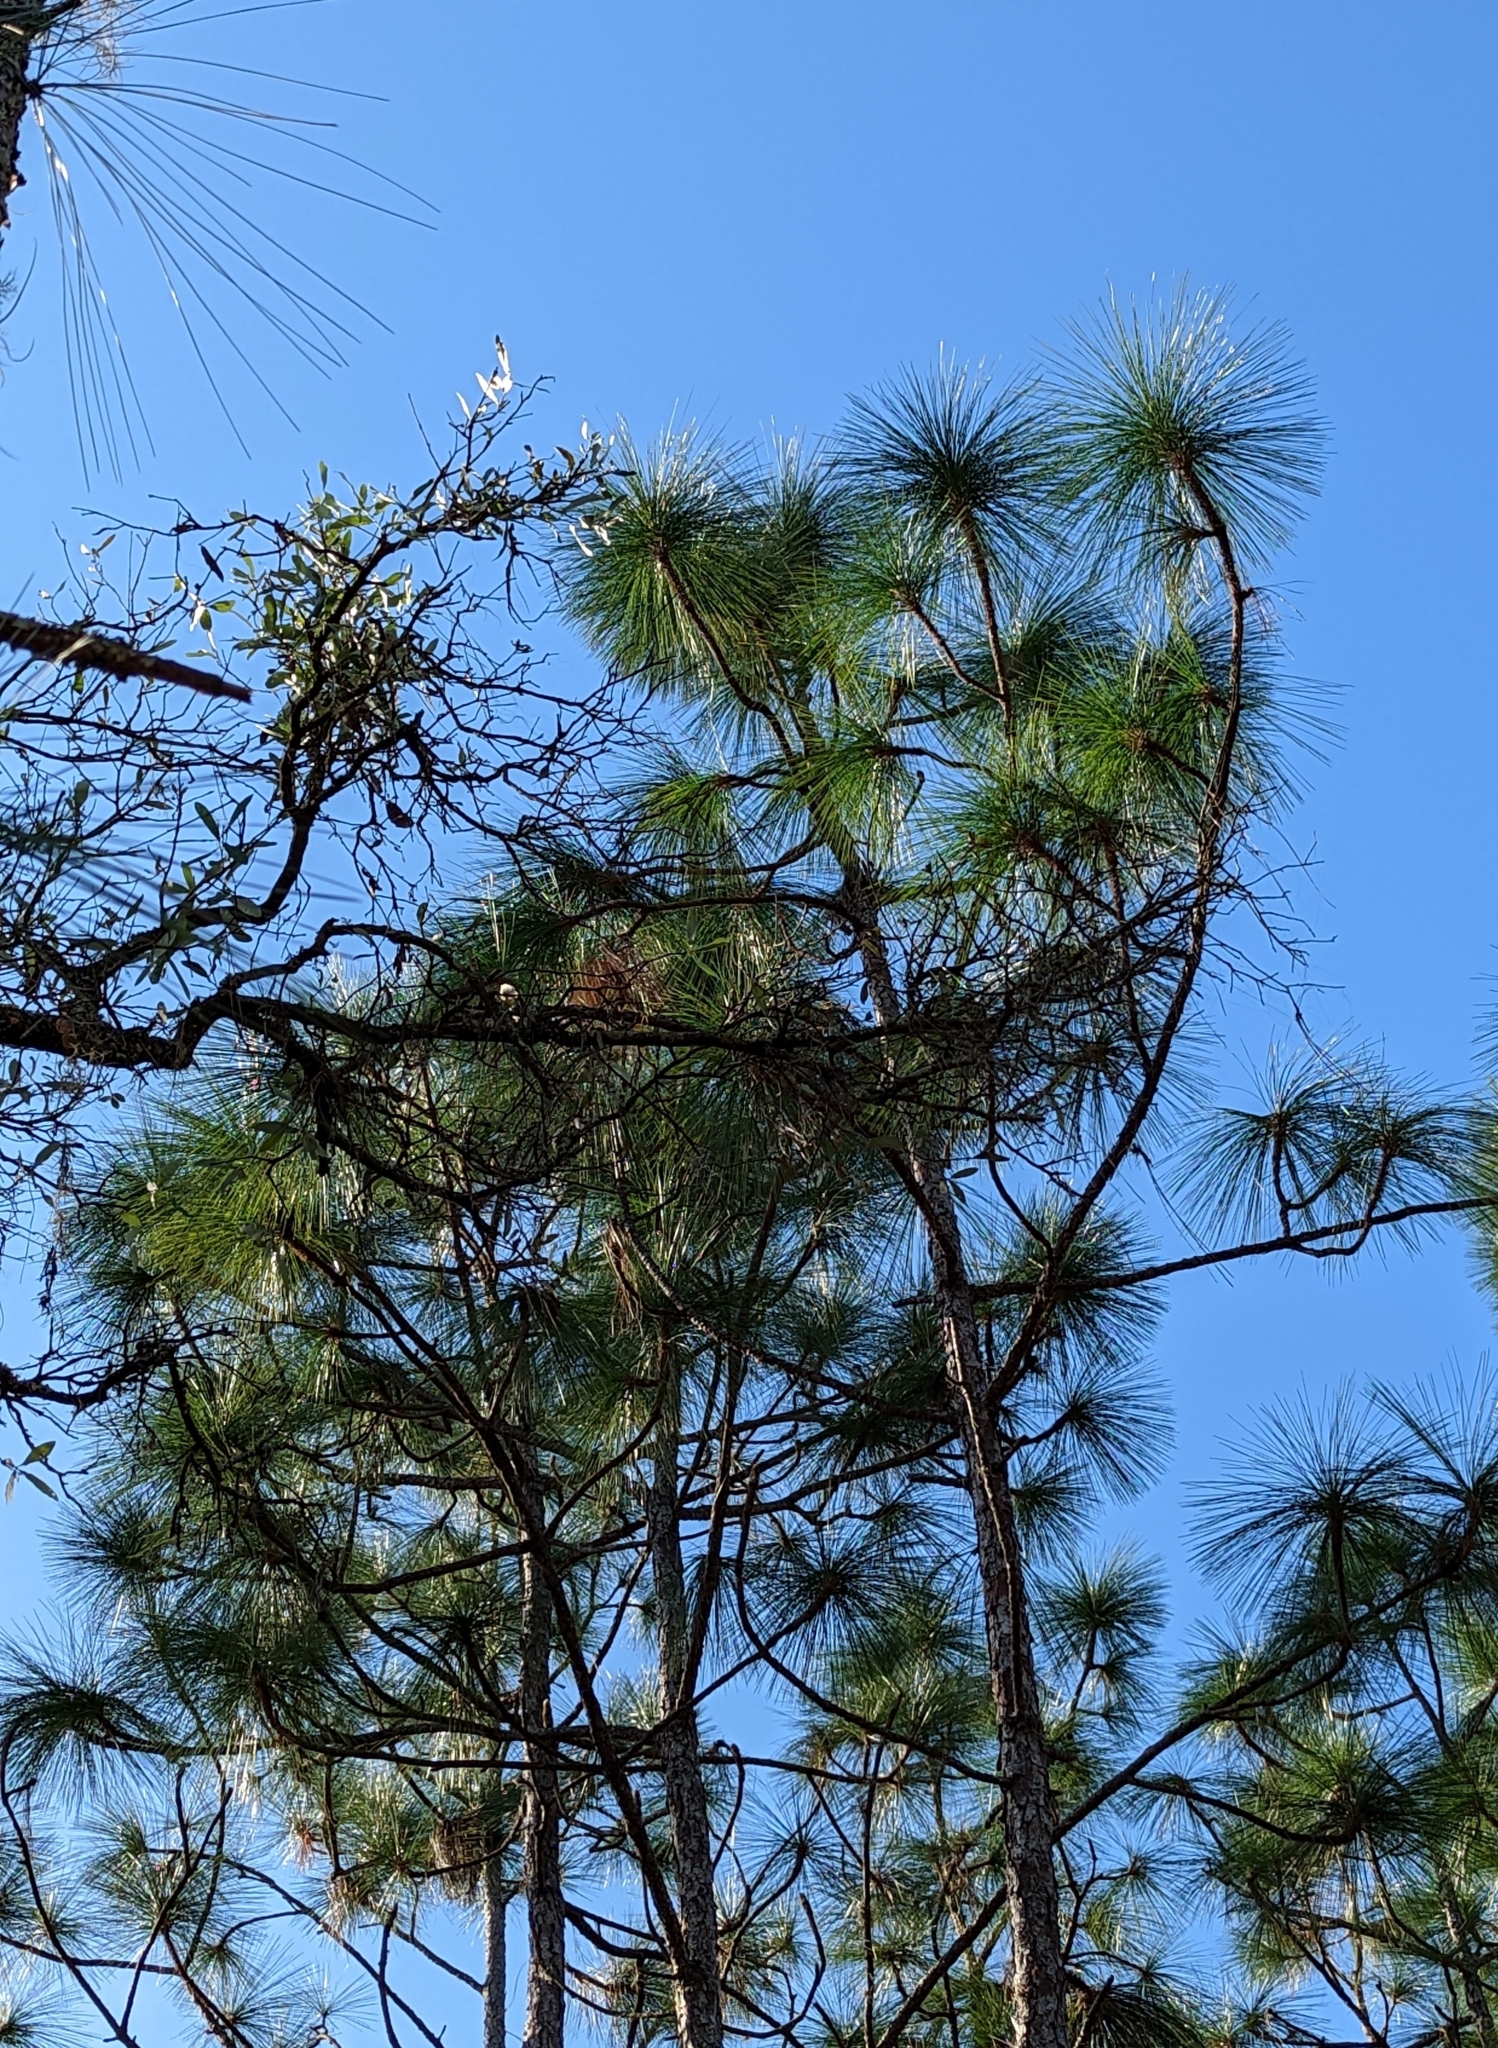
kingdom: Plantae
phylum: Tracheophyta
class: Pinopsida
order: Pinales
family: Pinaceae
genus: Pinus
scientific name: Pinus palustris
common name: Longleaf pine
